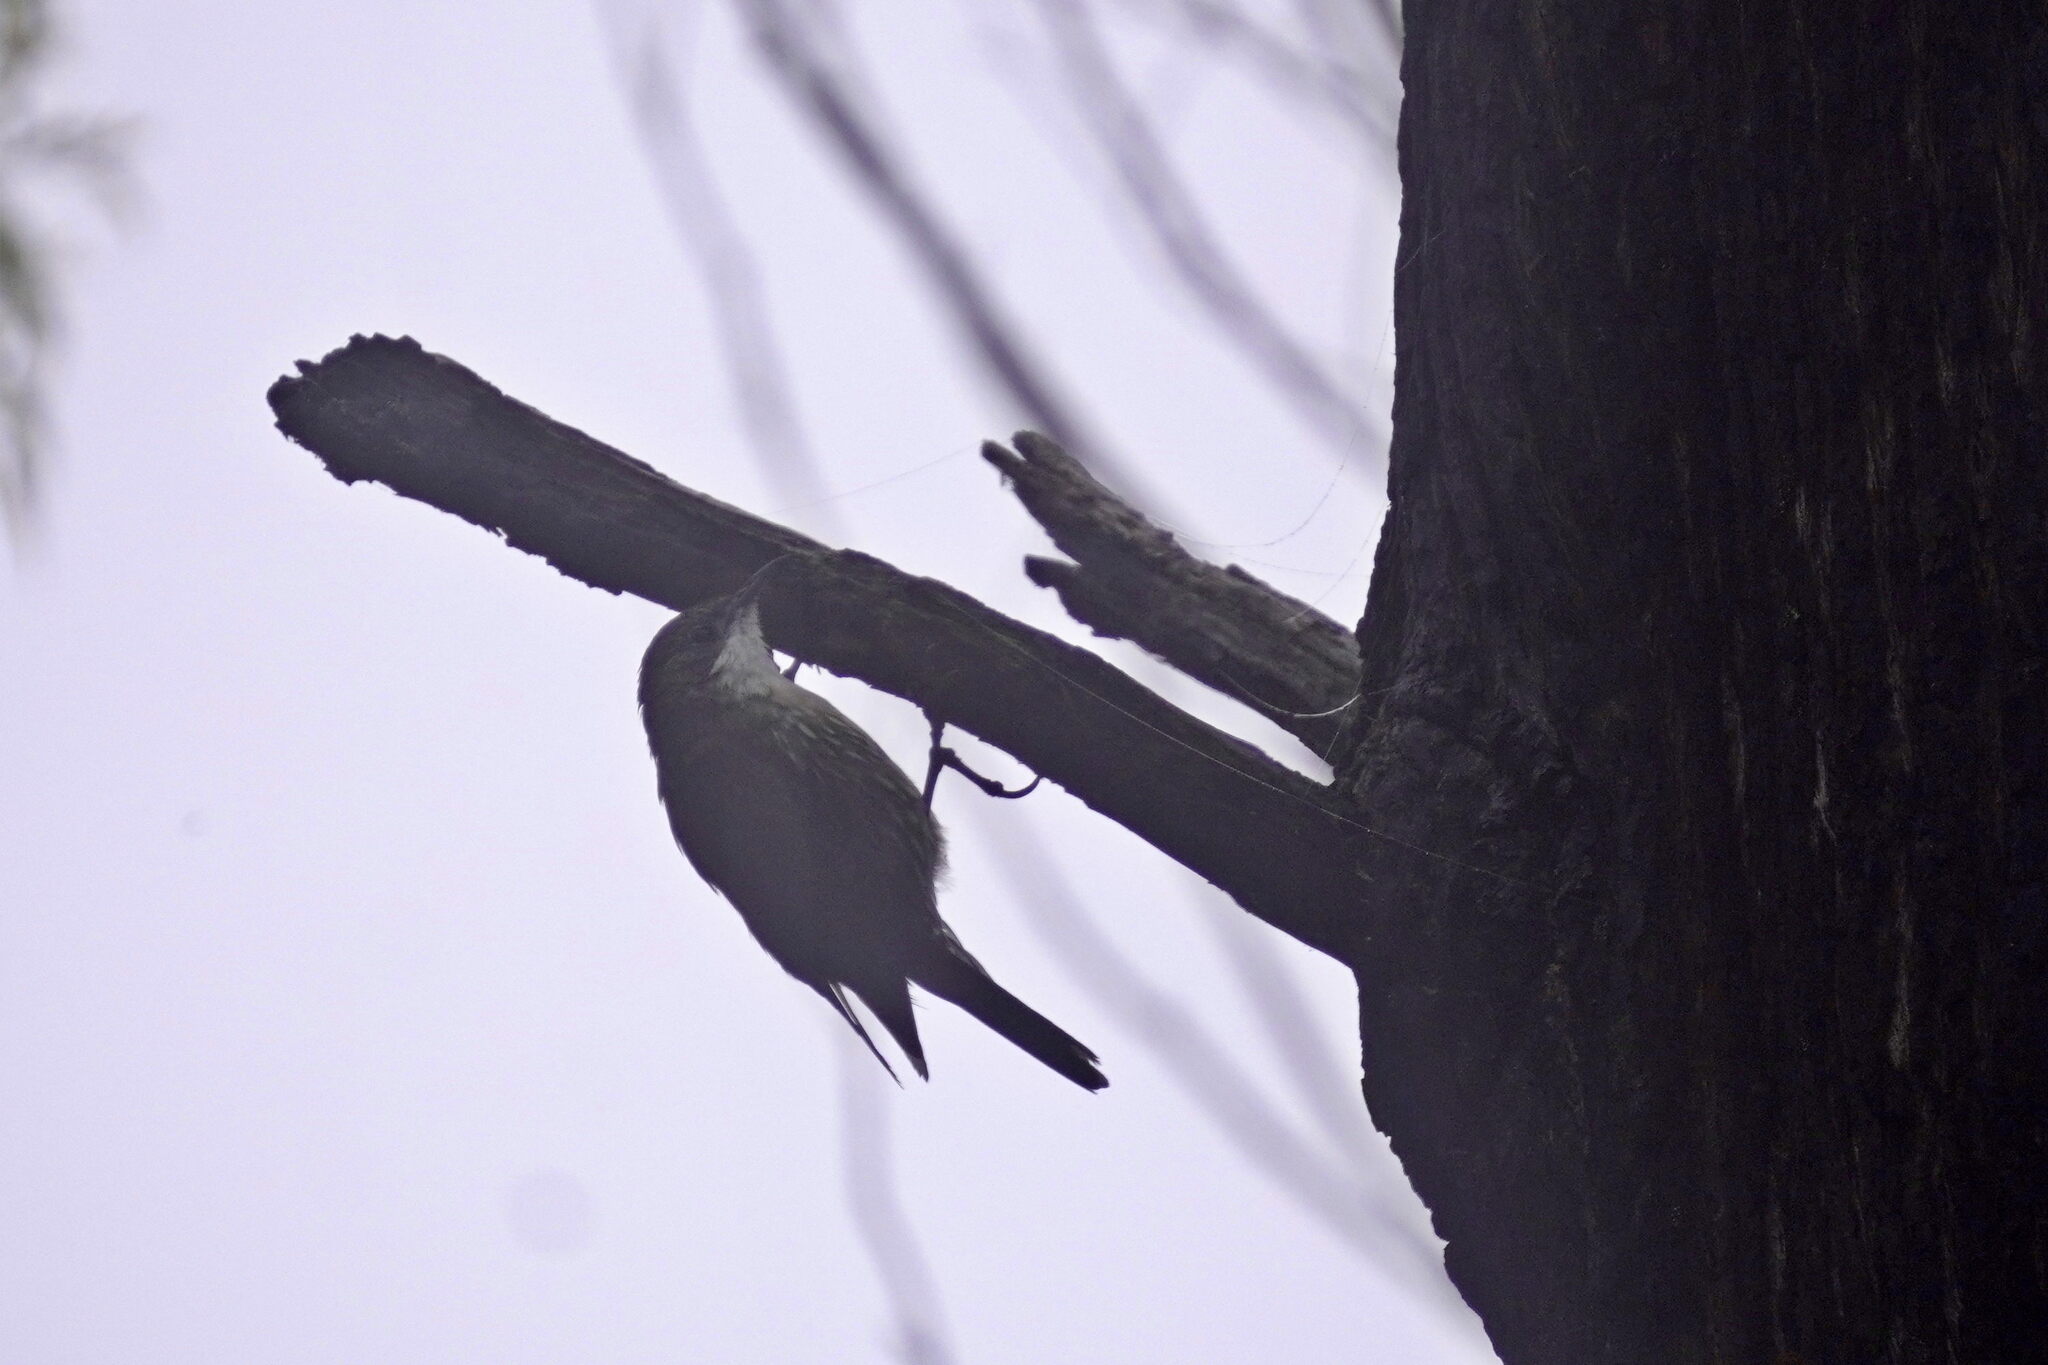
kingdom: Animalia
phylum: Chordata
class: Aves
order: Passeriformes
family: Climacteridae
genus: Cormobates
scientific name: Cormobates leucophaea
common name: White-throated treecreeper
